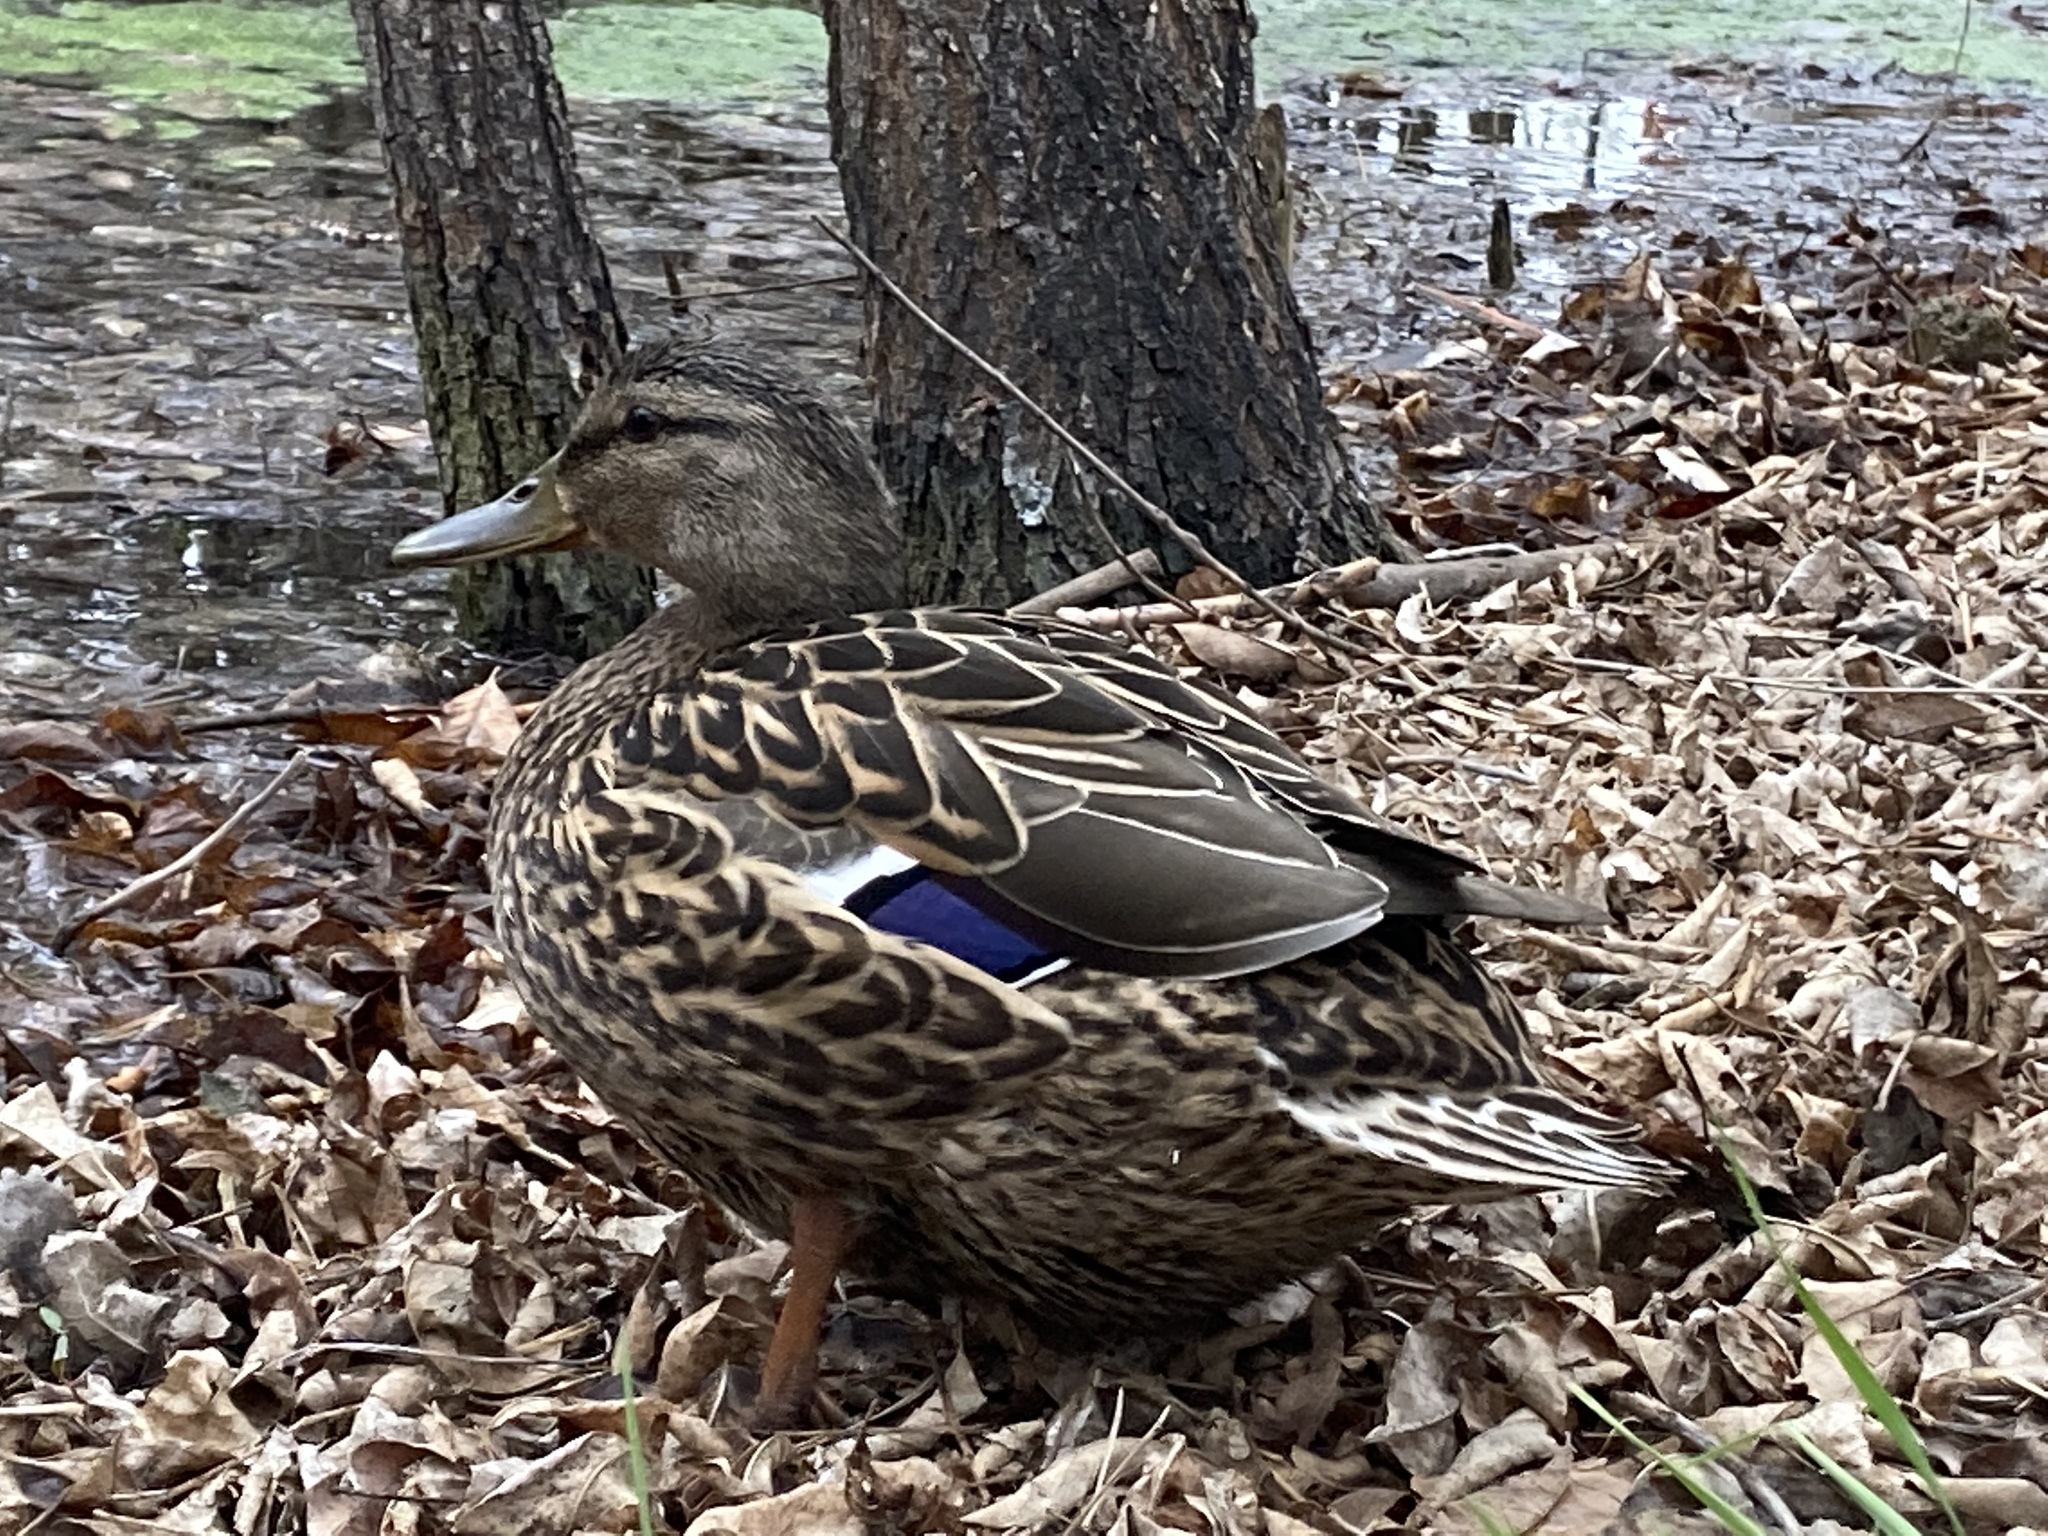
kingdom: Animalia
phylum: Chordata
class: Aves
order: Anseriformes
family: Anatidae
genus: Anas
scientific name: Anas platyrhynchos
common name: Mallard
